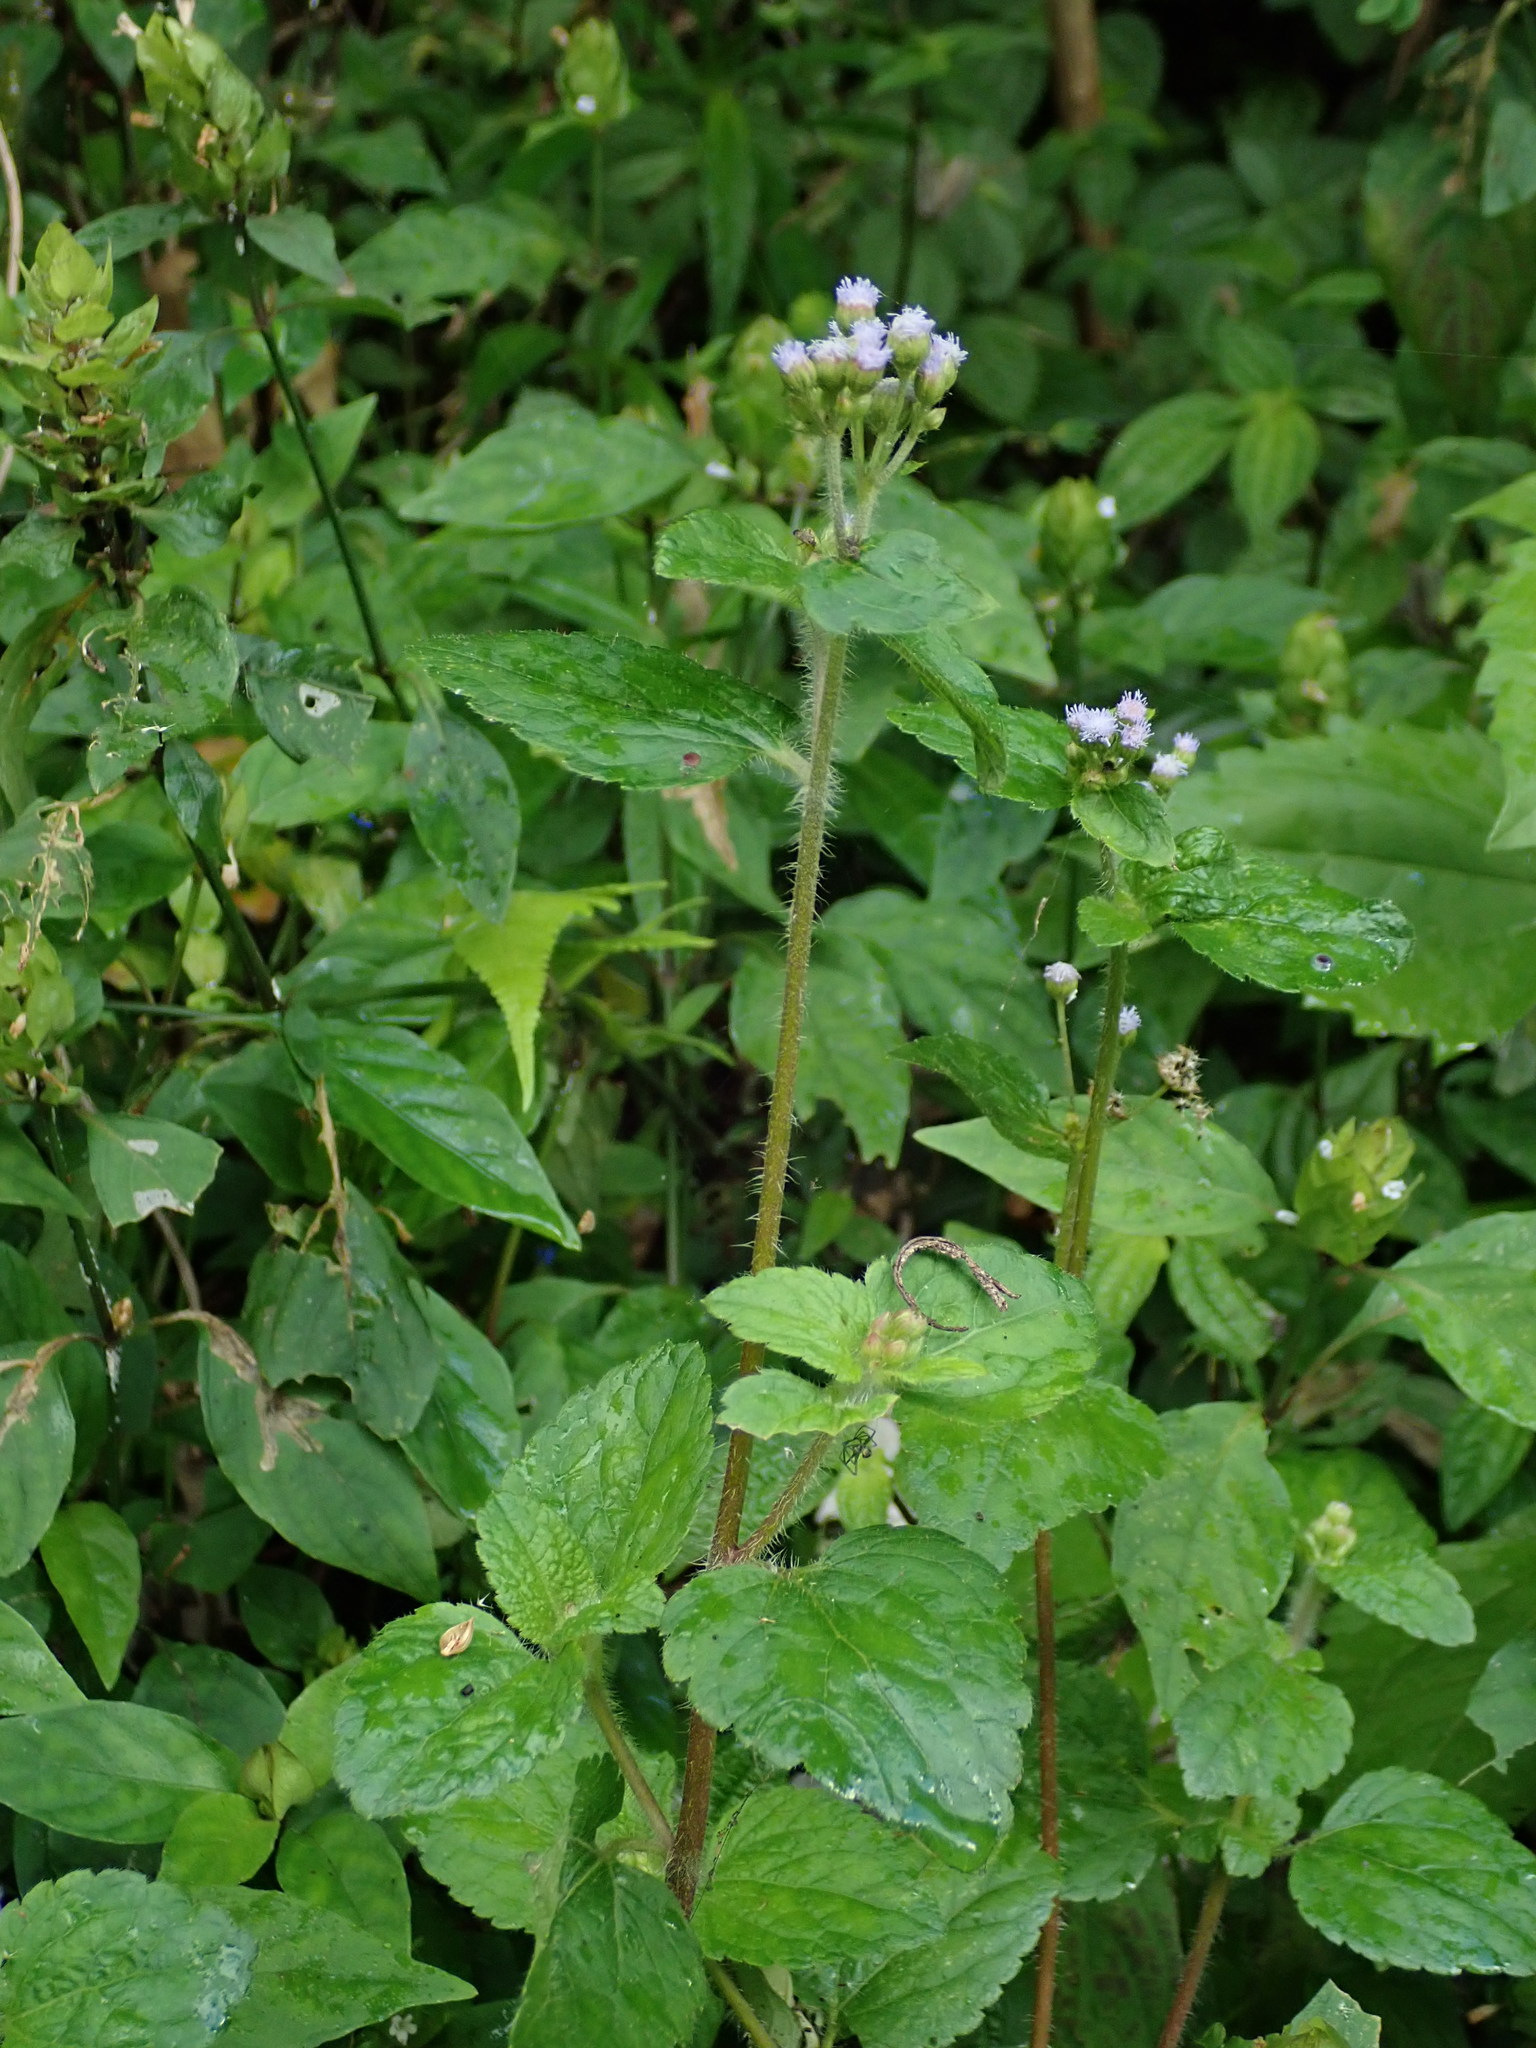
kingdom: Plantae
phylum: Tracheophyta
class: Magnoliopsida
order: Asterales
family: Asteraceae
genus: Ageratum
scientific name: Ageratum conyzoides
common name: Tropical whiteweed
